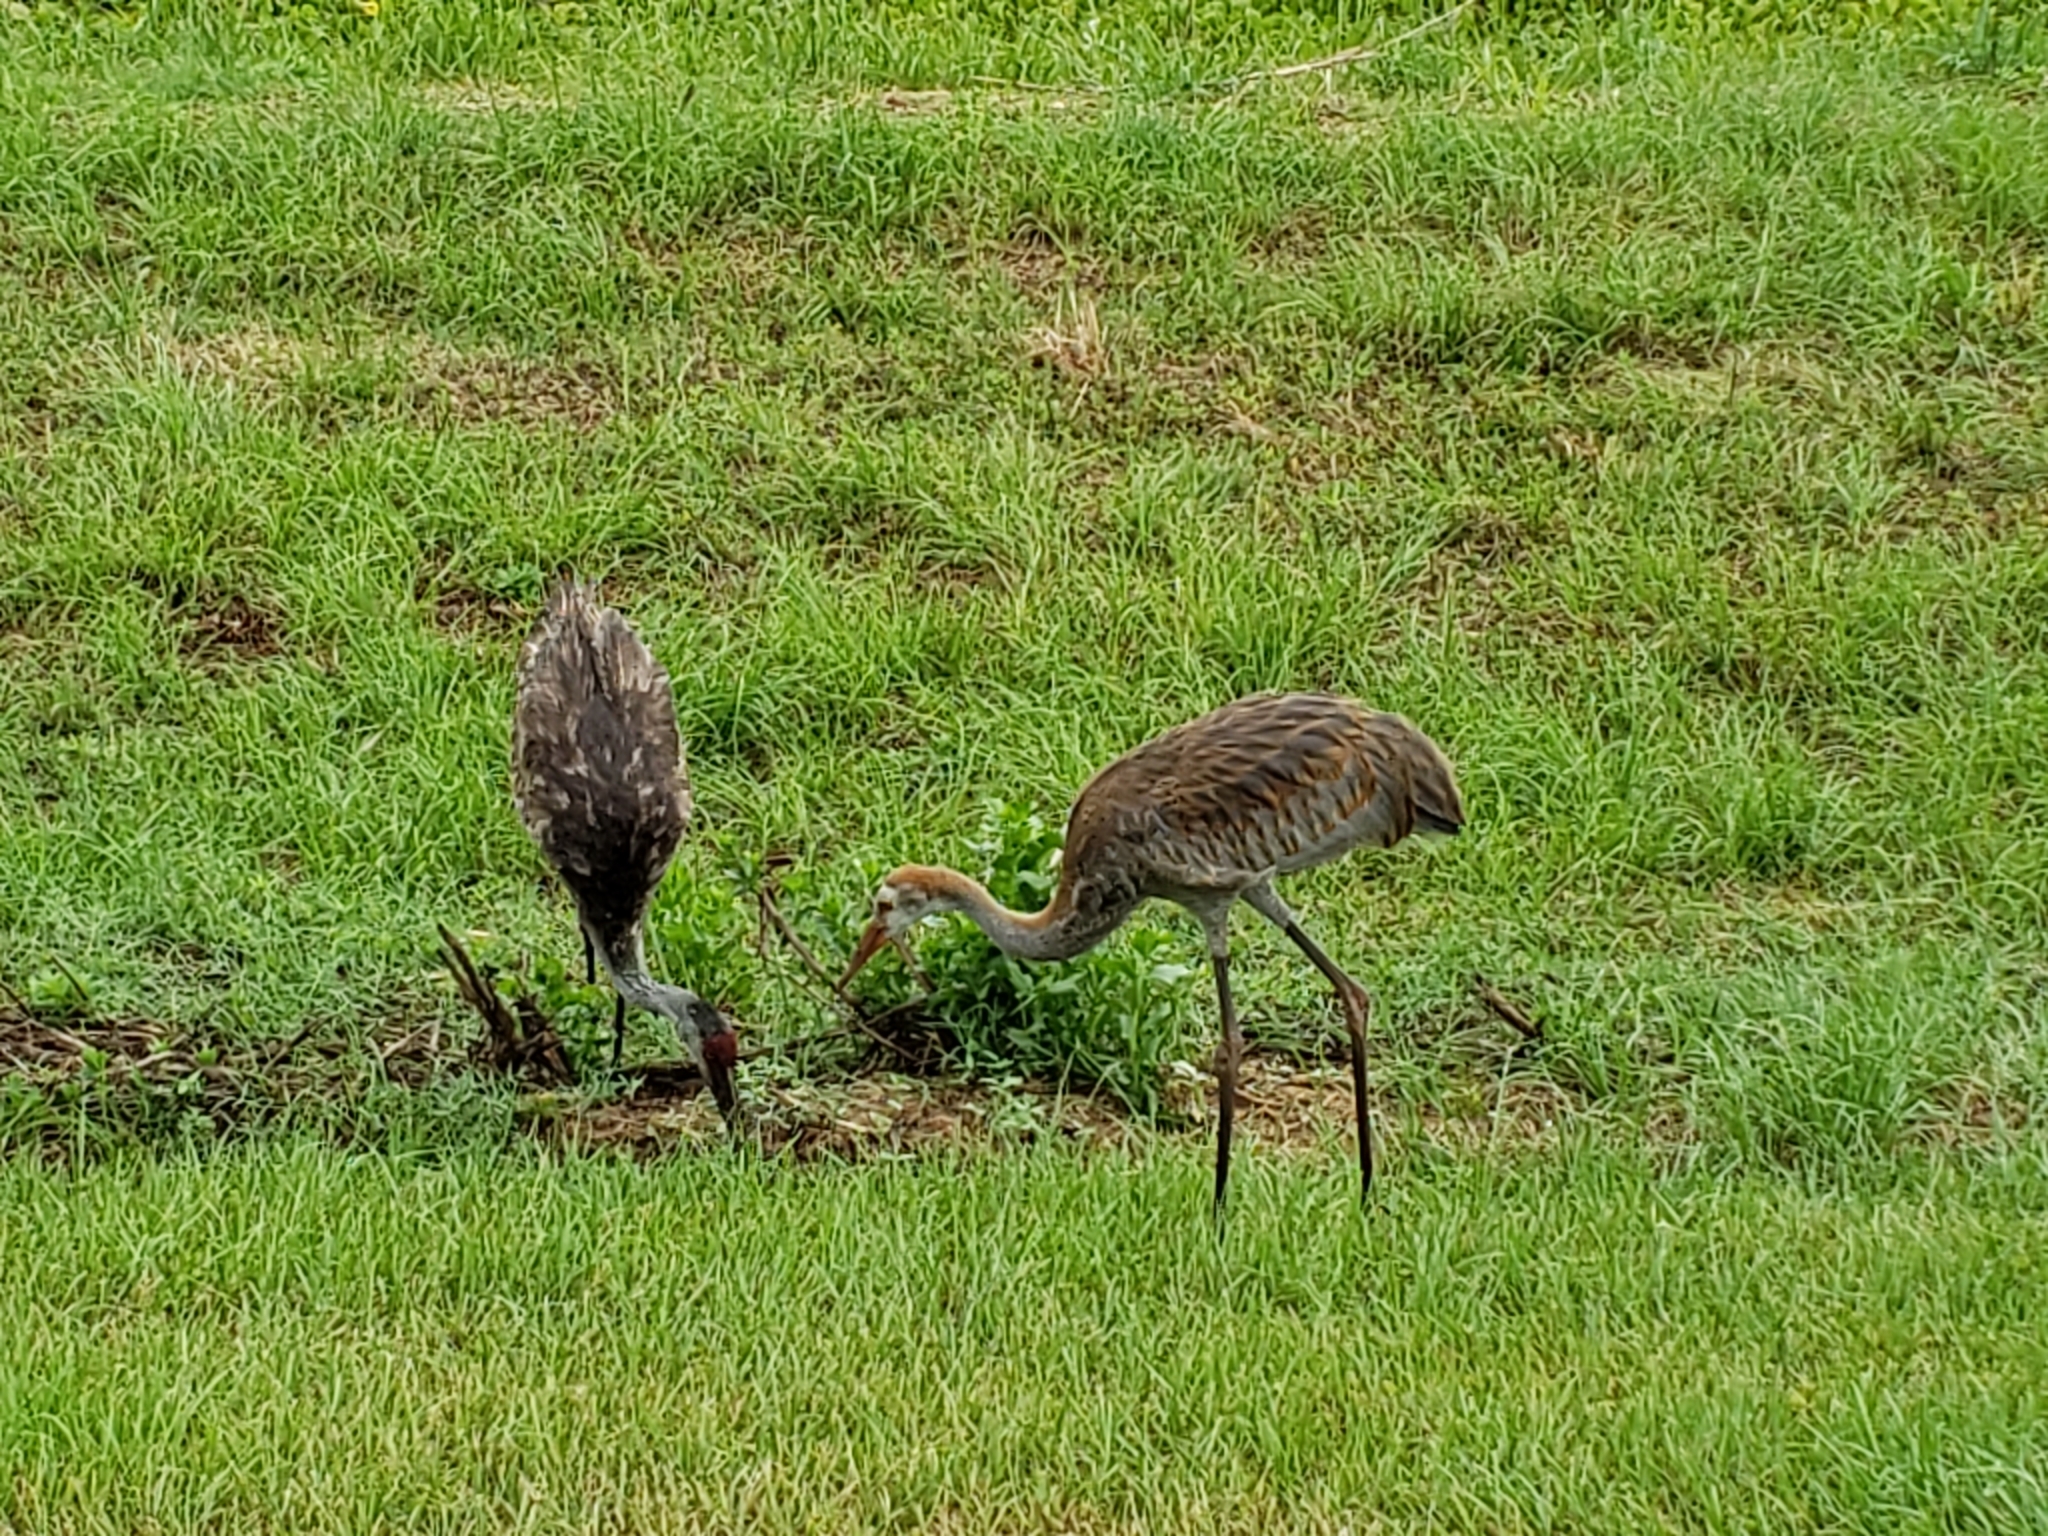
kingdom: Animalia
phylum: Chordata
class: Aves
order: Gruiformes
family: Gruidae
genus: Grus
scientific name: Grus canadensis
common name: Sandhill crane
